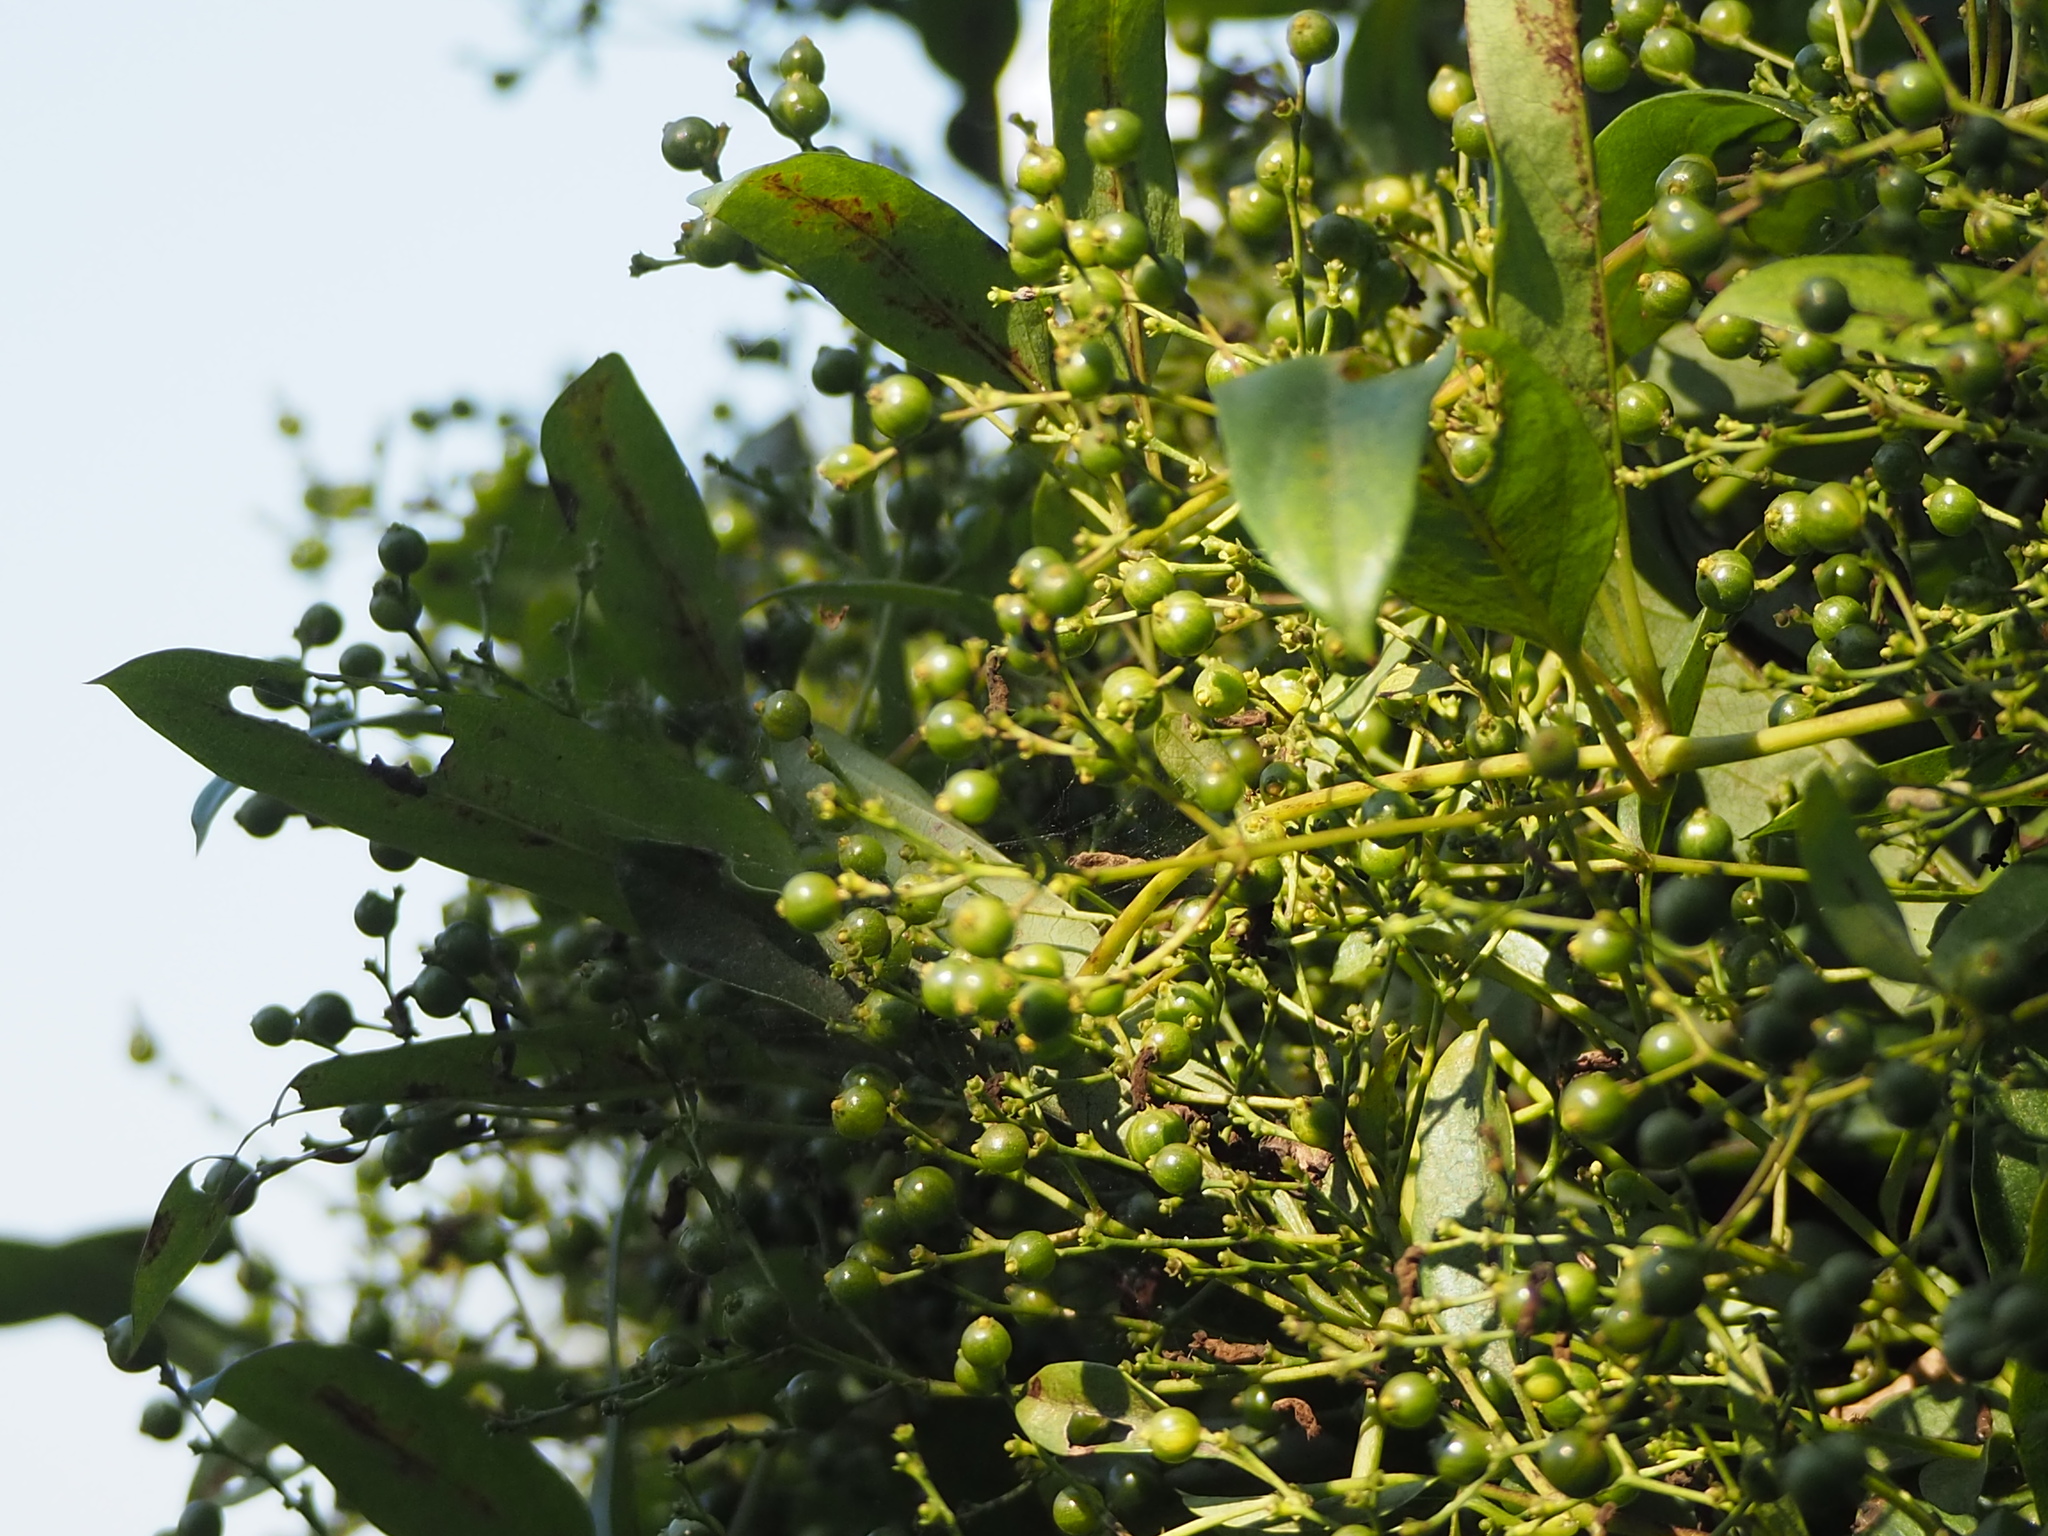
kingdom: Plantae
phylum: Tracheophyta
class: Magnoliopsida
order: Gentianales
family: Rubiaceae
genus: Paederia
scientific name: Paederia foetida
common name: Stinkvine
